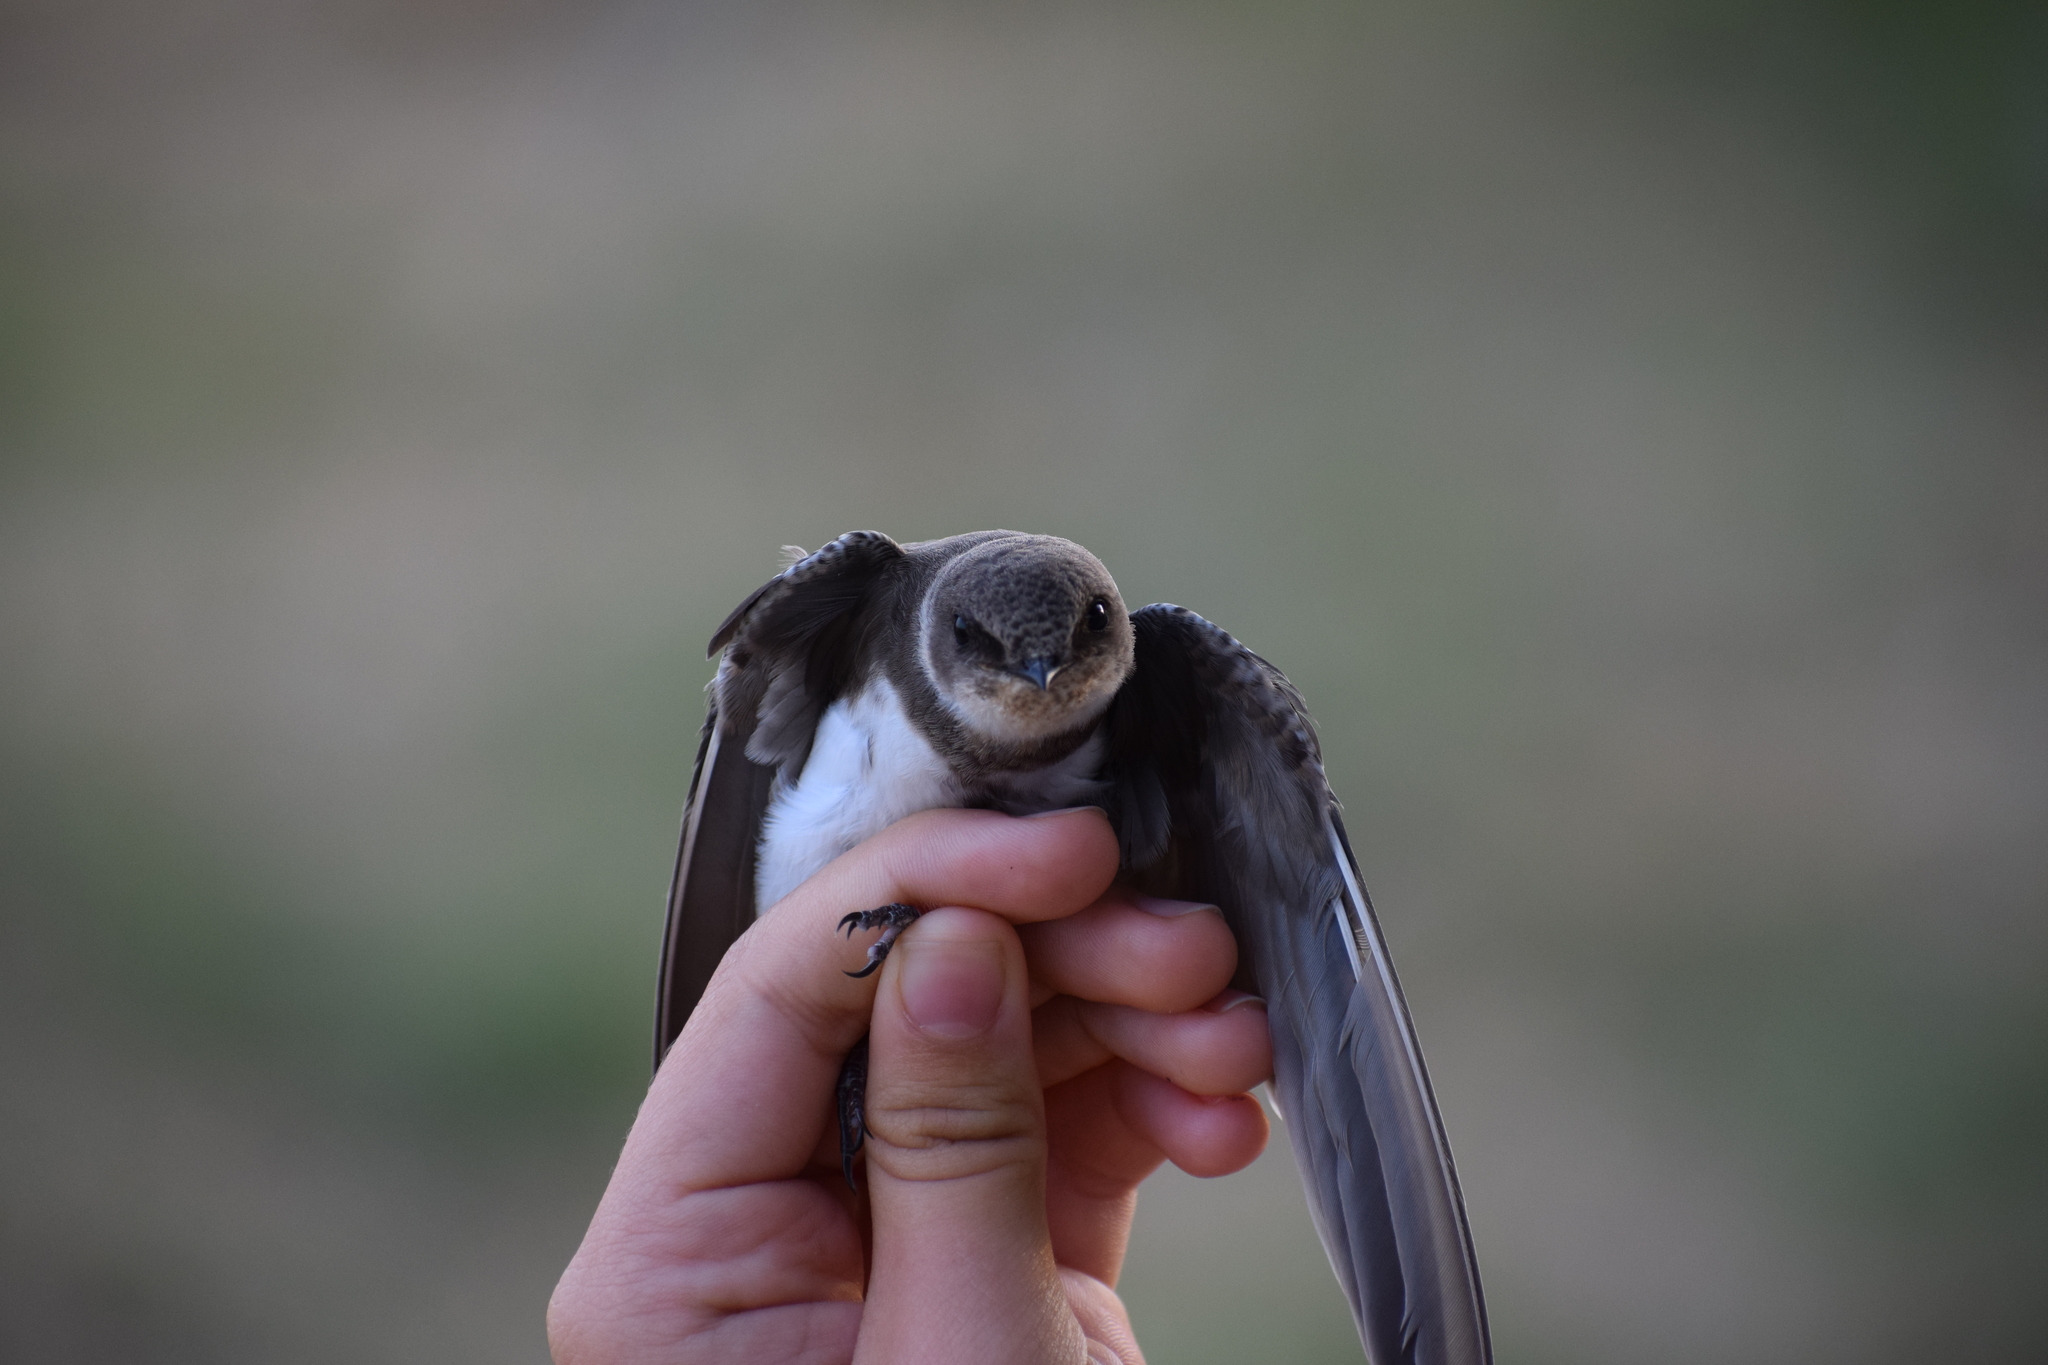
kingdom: Animalia
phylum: Chordata
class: Aves
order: Passeriformes
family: Hirundinidae
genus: Hirundo
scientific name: Hirundo rustica
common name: Barn swallow
